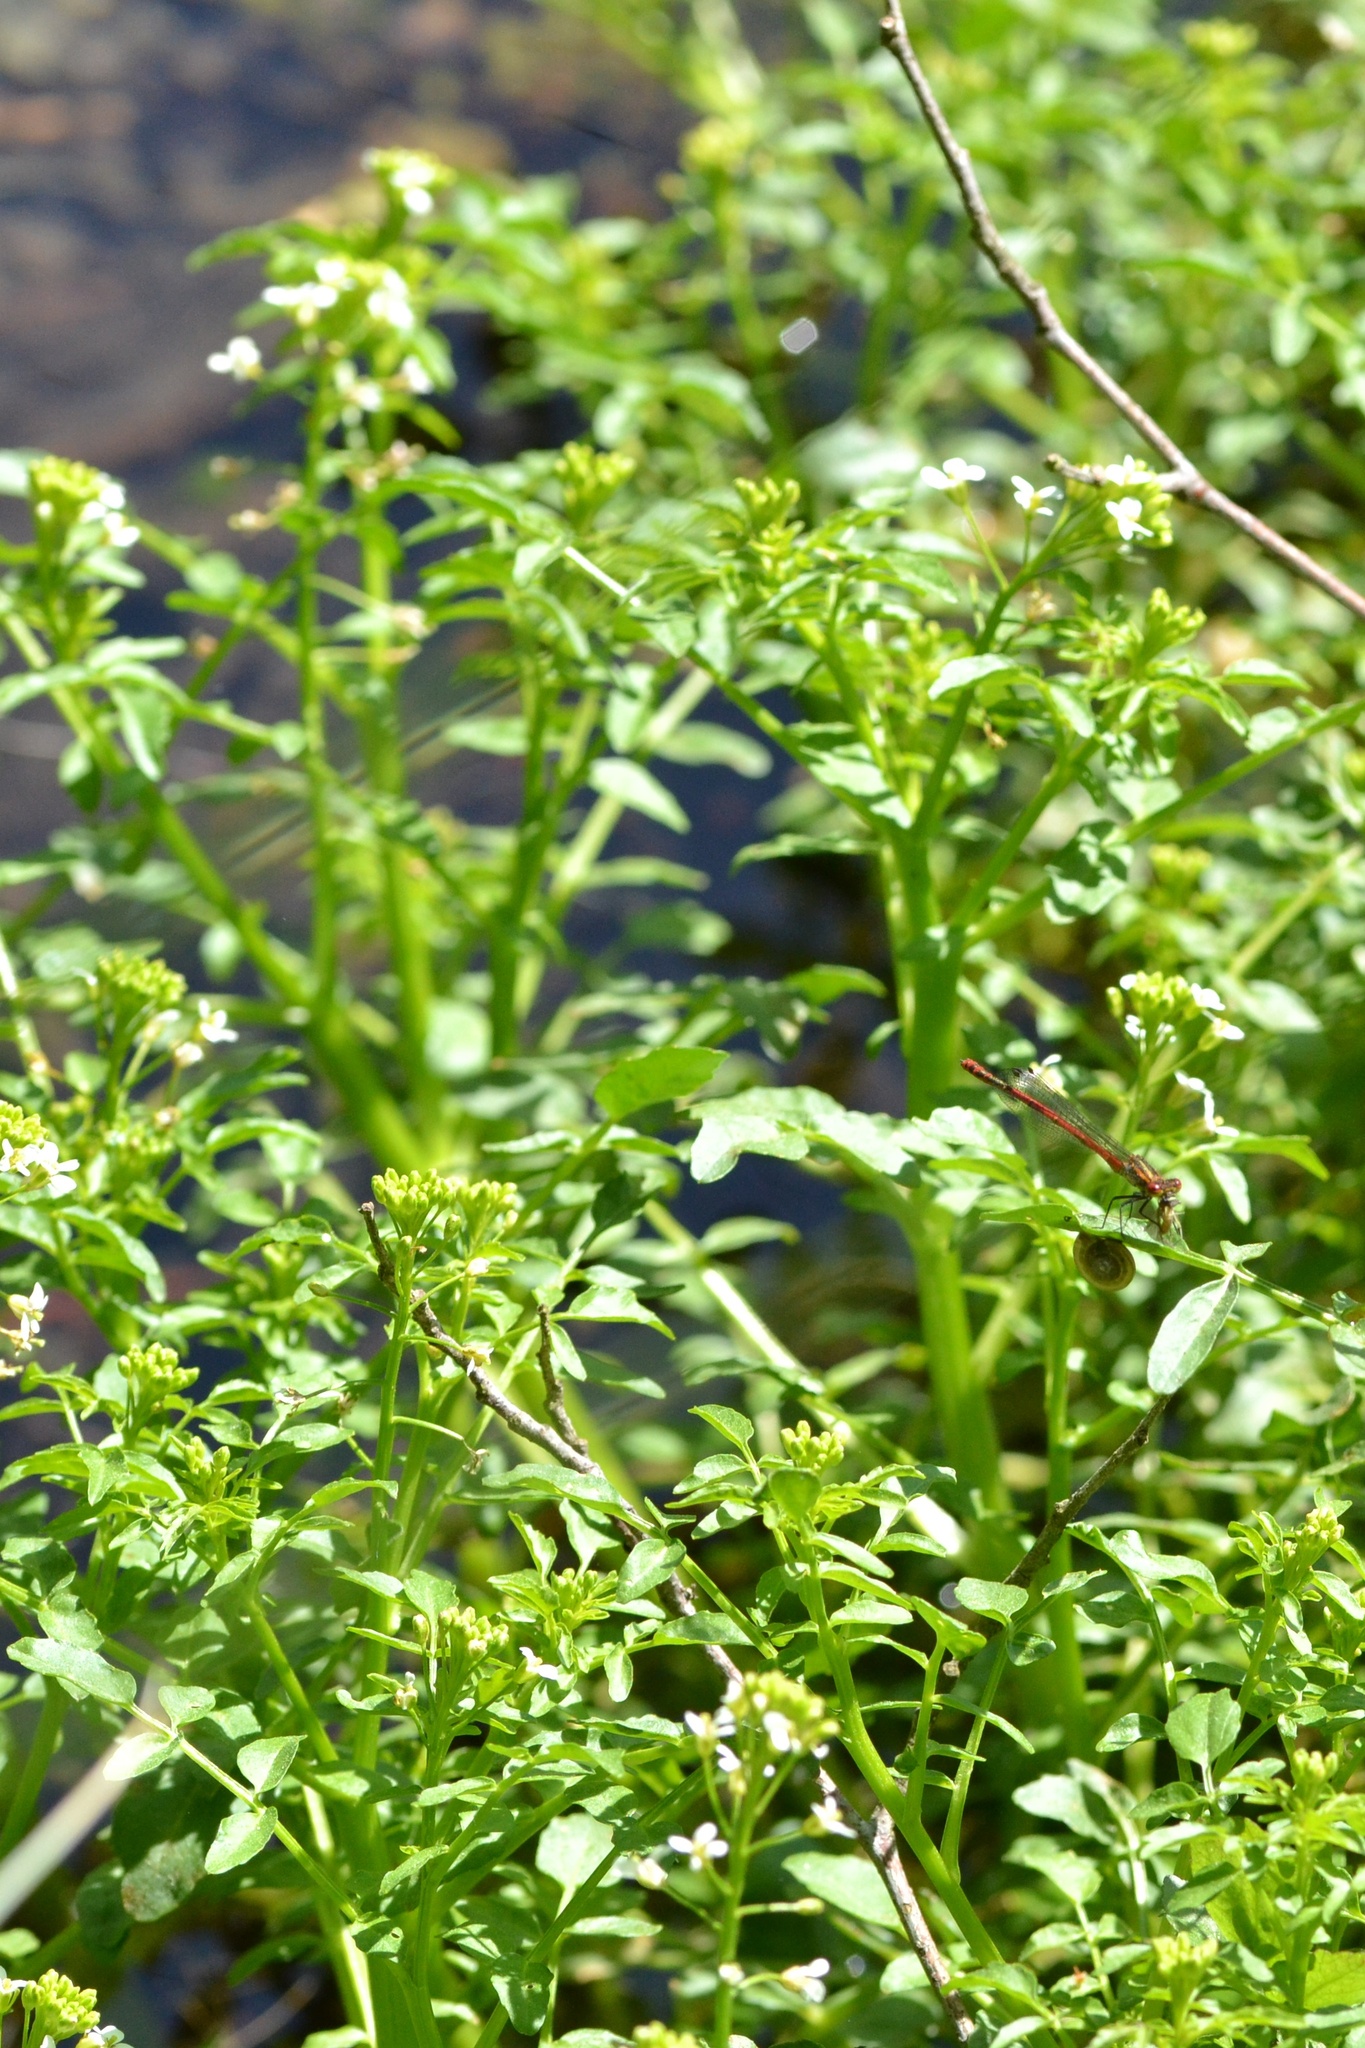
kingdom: Plantae
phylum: Tracheophyta
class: Magnoliopsida
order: Brassicales
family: Brassicaceae
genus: Cardamine
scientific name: Cardamine flexuosa
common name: Woodland bittercress
